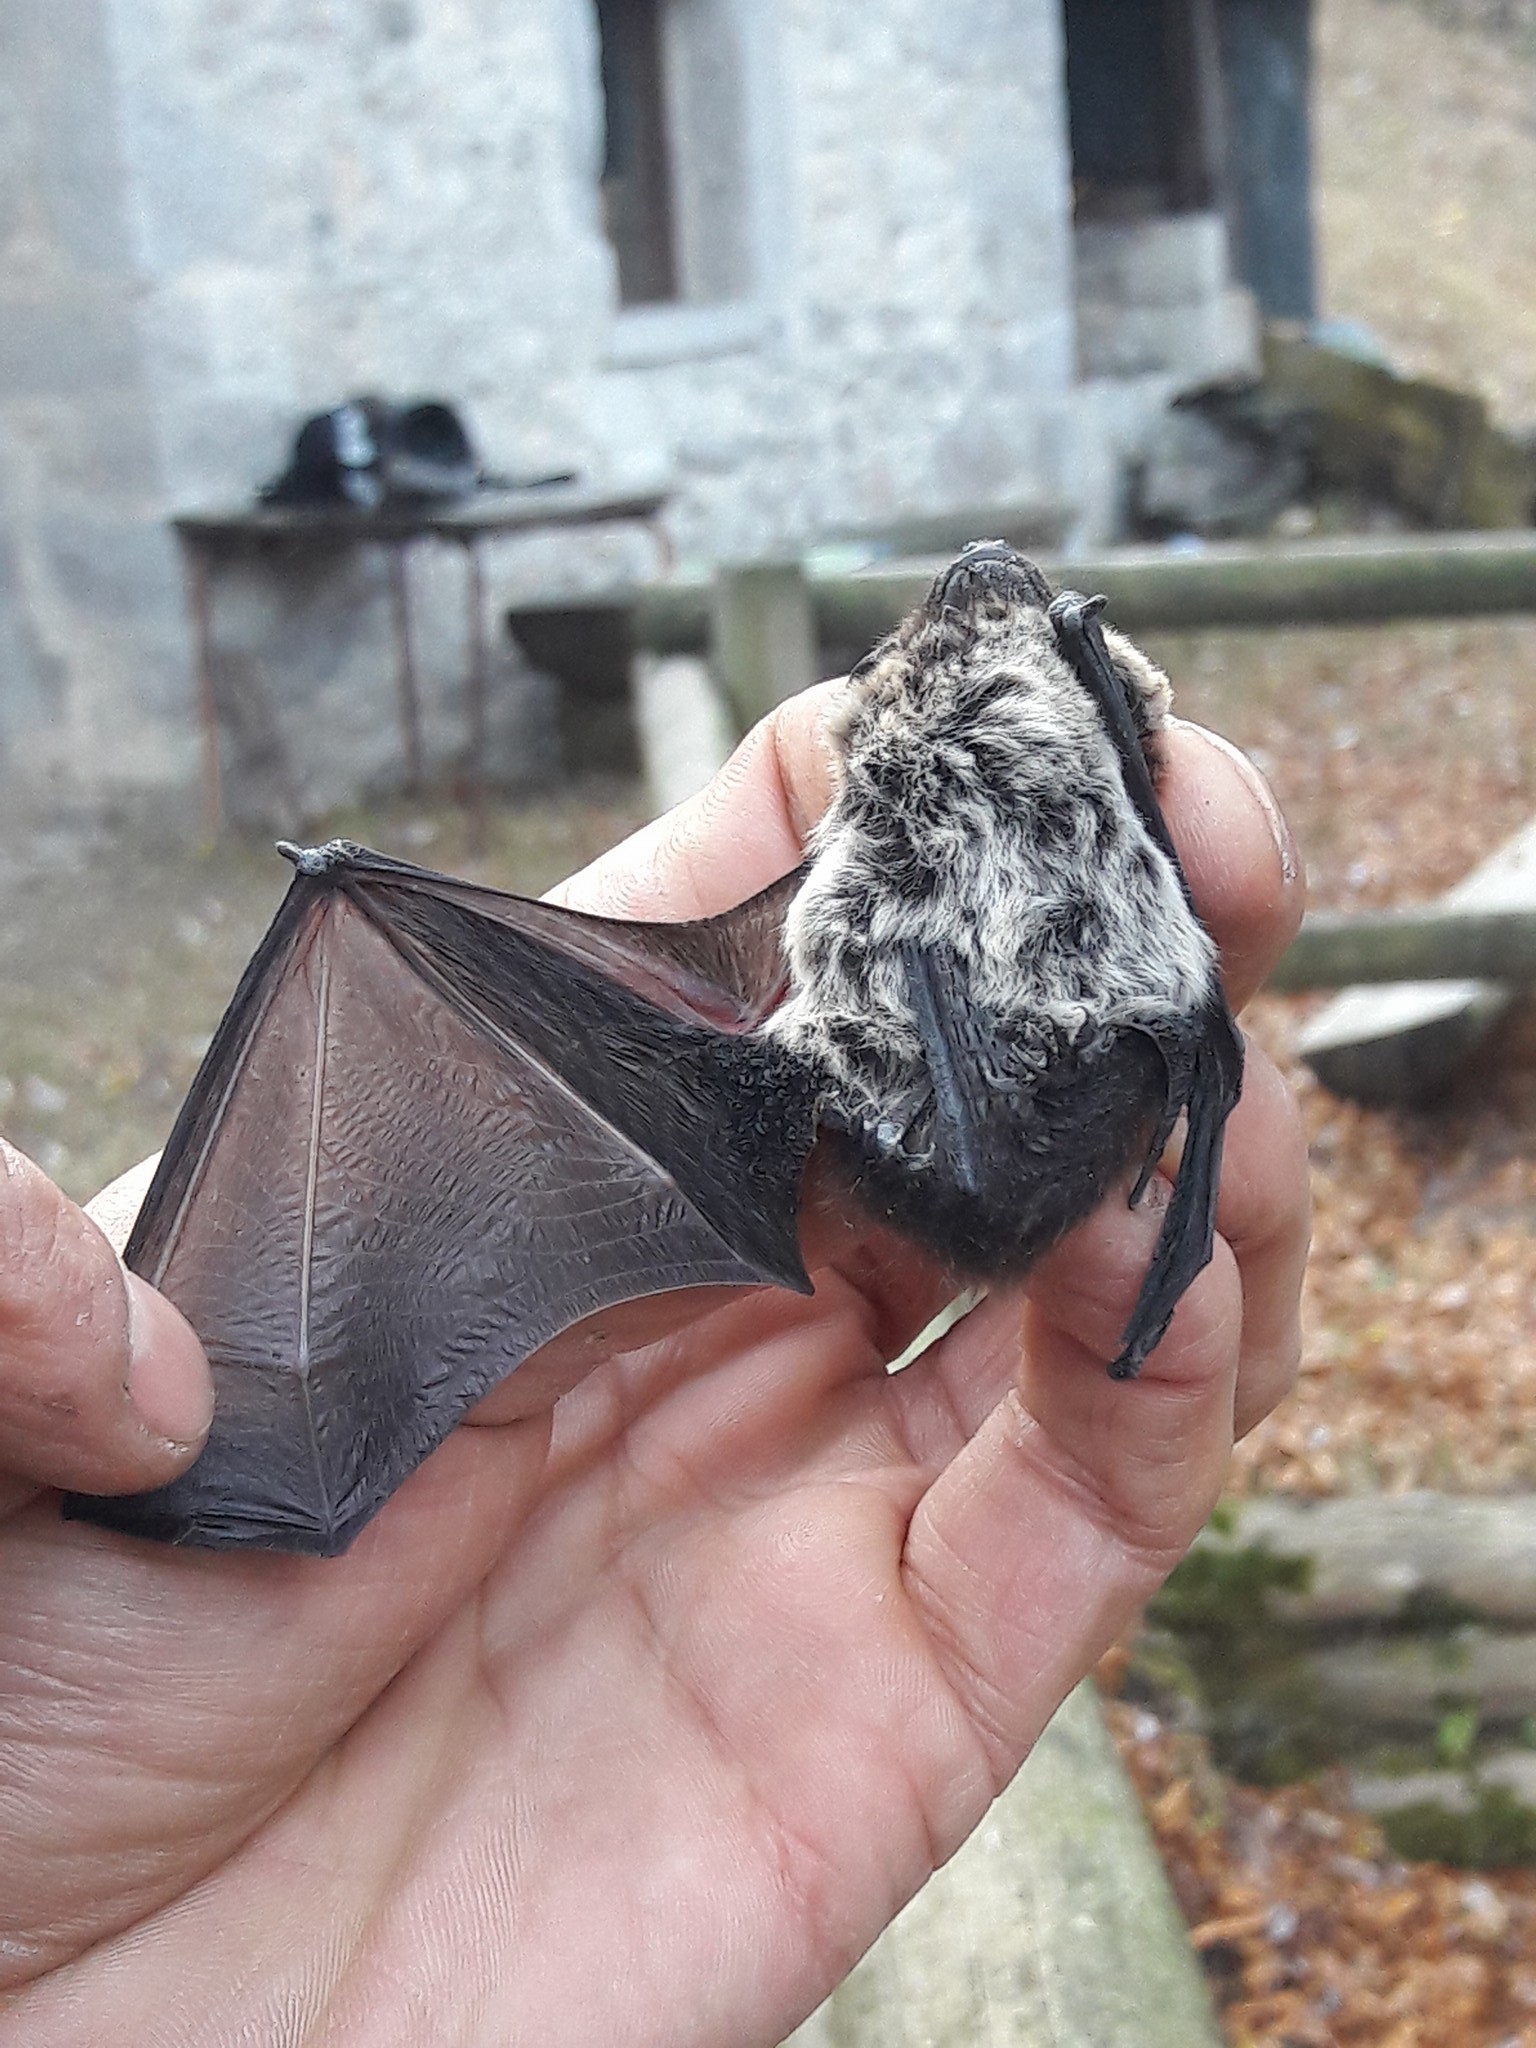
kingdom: Animalia
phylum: Chordata
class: Mammalia
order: Chiroptera
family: Vespertilionidae
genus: Hypsugo
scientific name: Hypsugo savii
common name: Savi's pipistrelle
